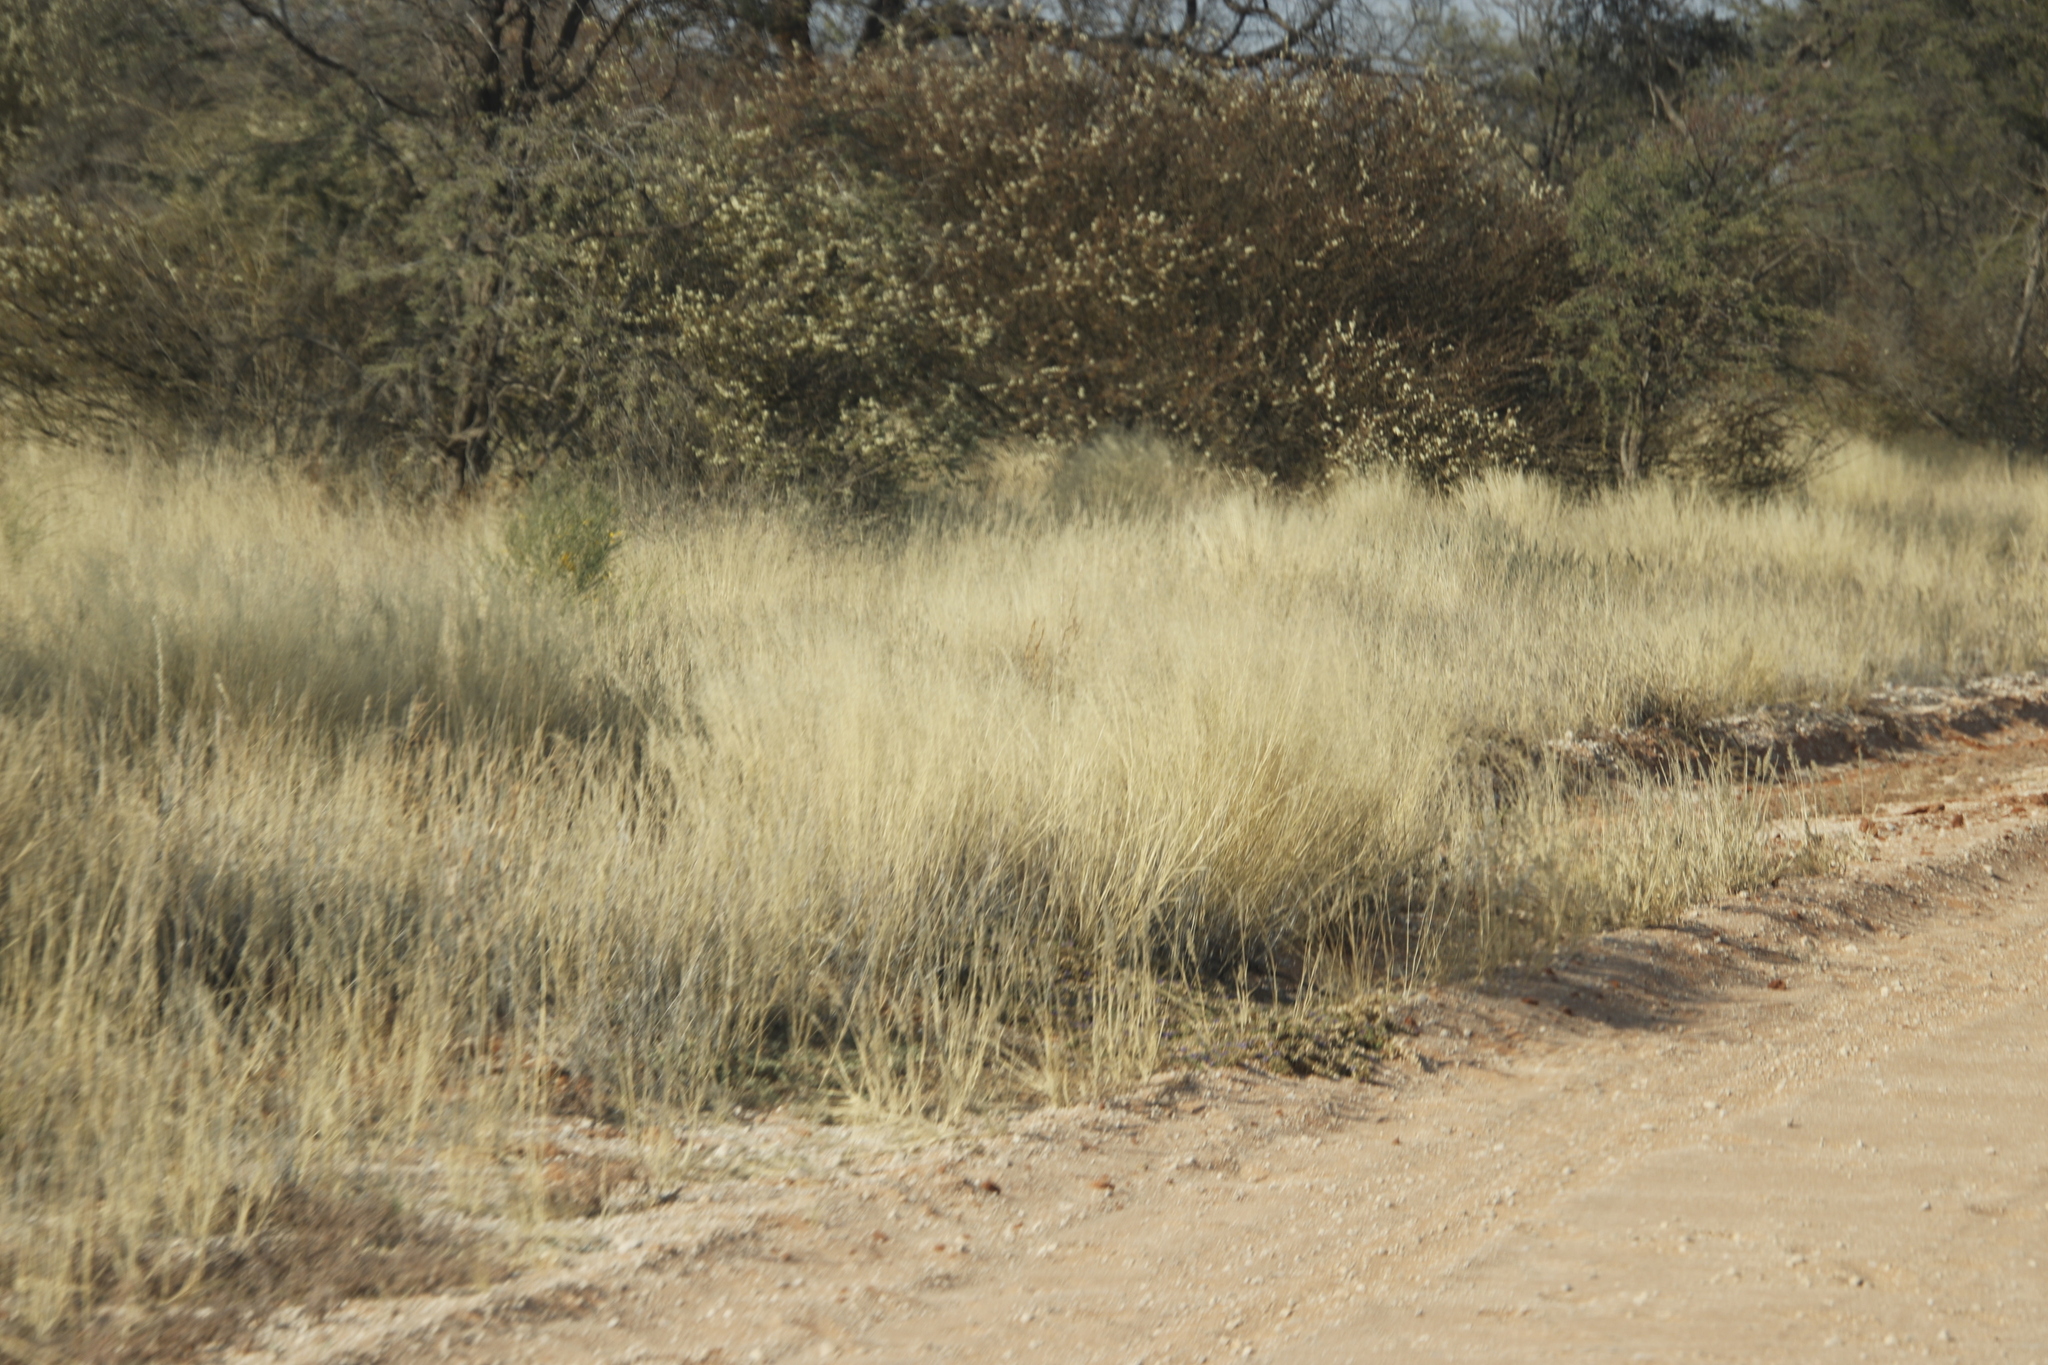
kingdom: Plantae
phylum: Tracheophyta
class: Magnoliopsida
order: Fabales
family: Fabaceae
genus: Senegalia
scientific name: Senegalia mellifera
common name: Hookthorn
